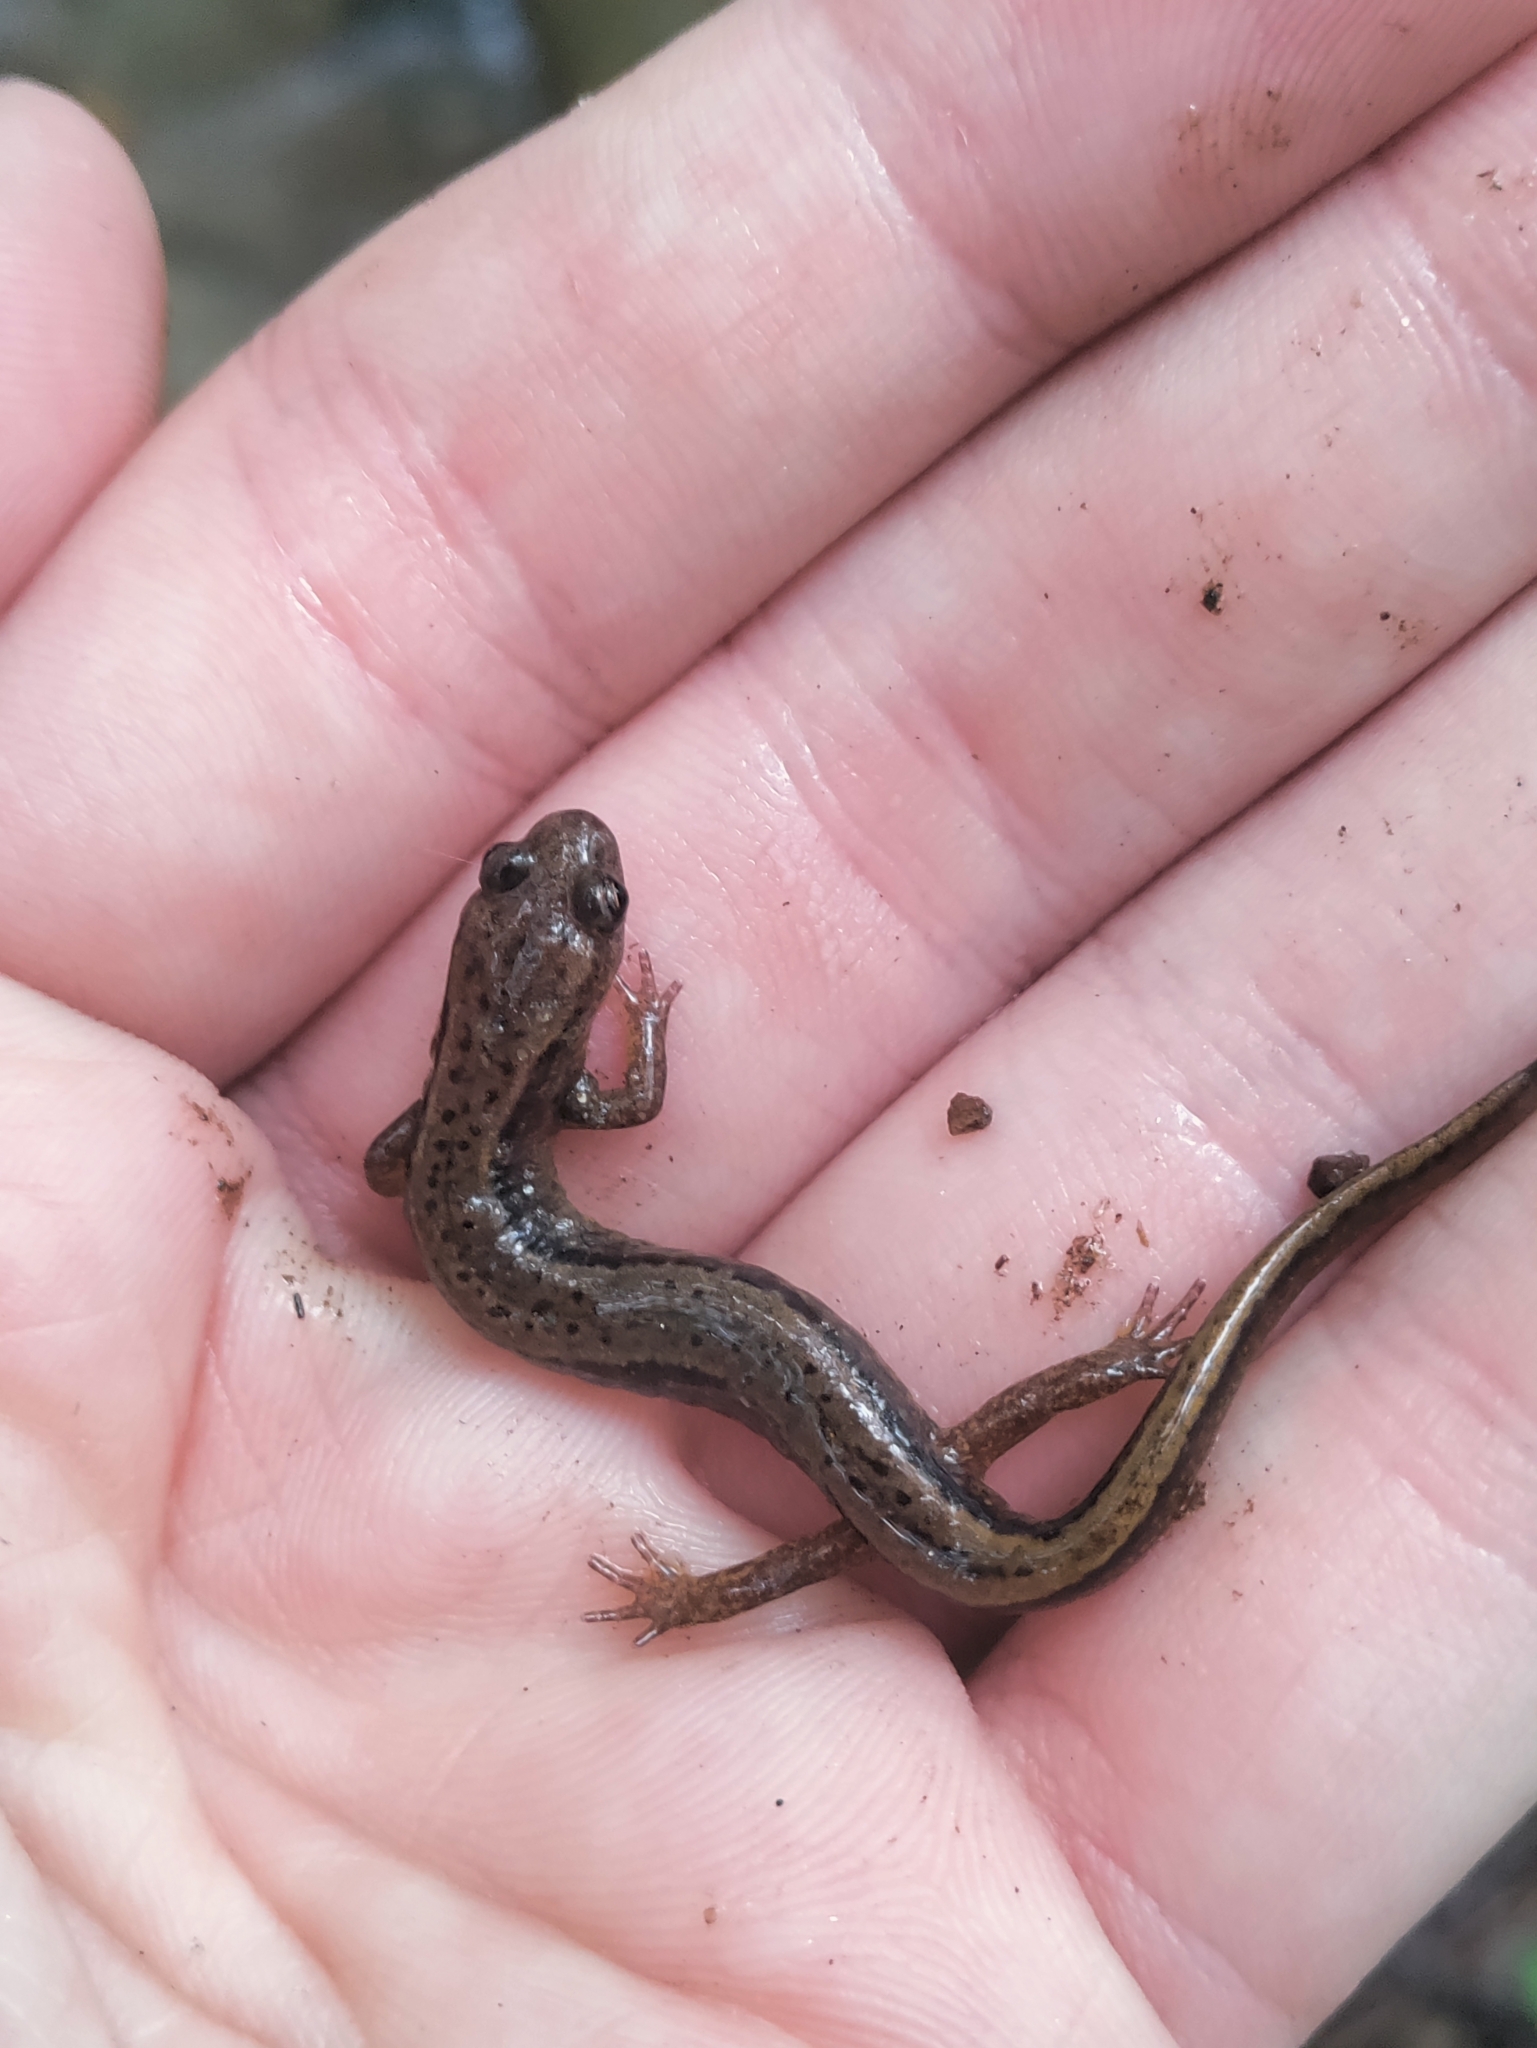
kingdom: Animalia
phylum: Chordata
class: Amphibia
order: Caudata
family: Plethodontidae
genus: Eurycea
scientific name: Eurycea bislineata
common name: Northern two-lined salamander
